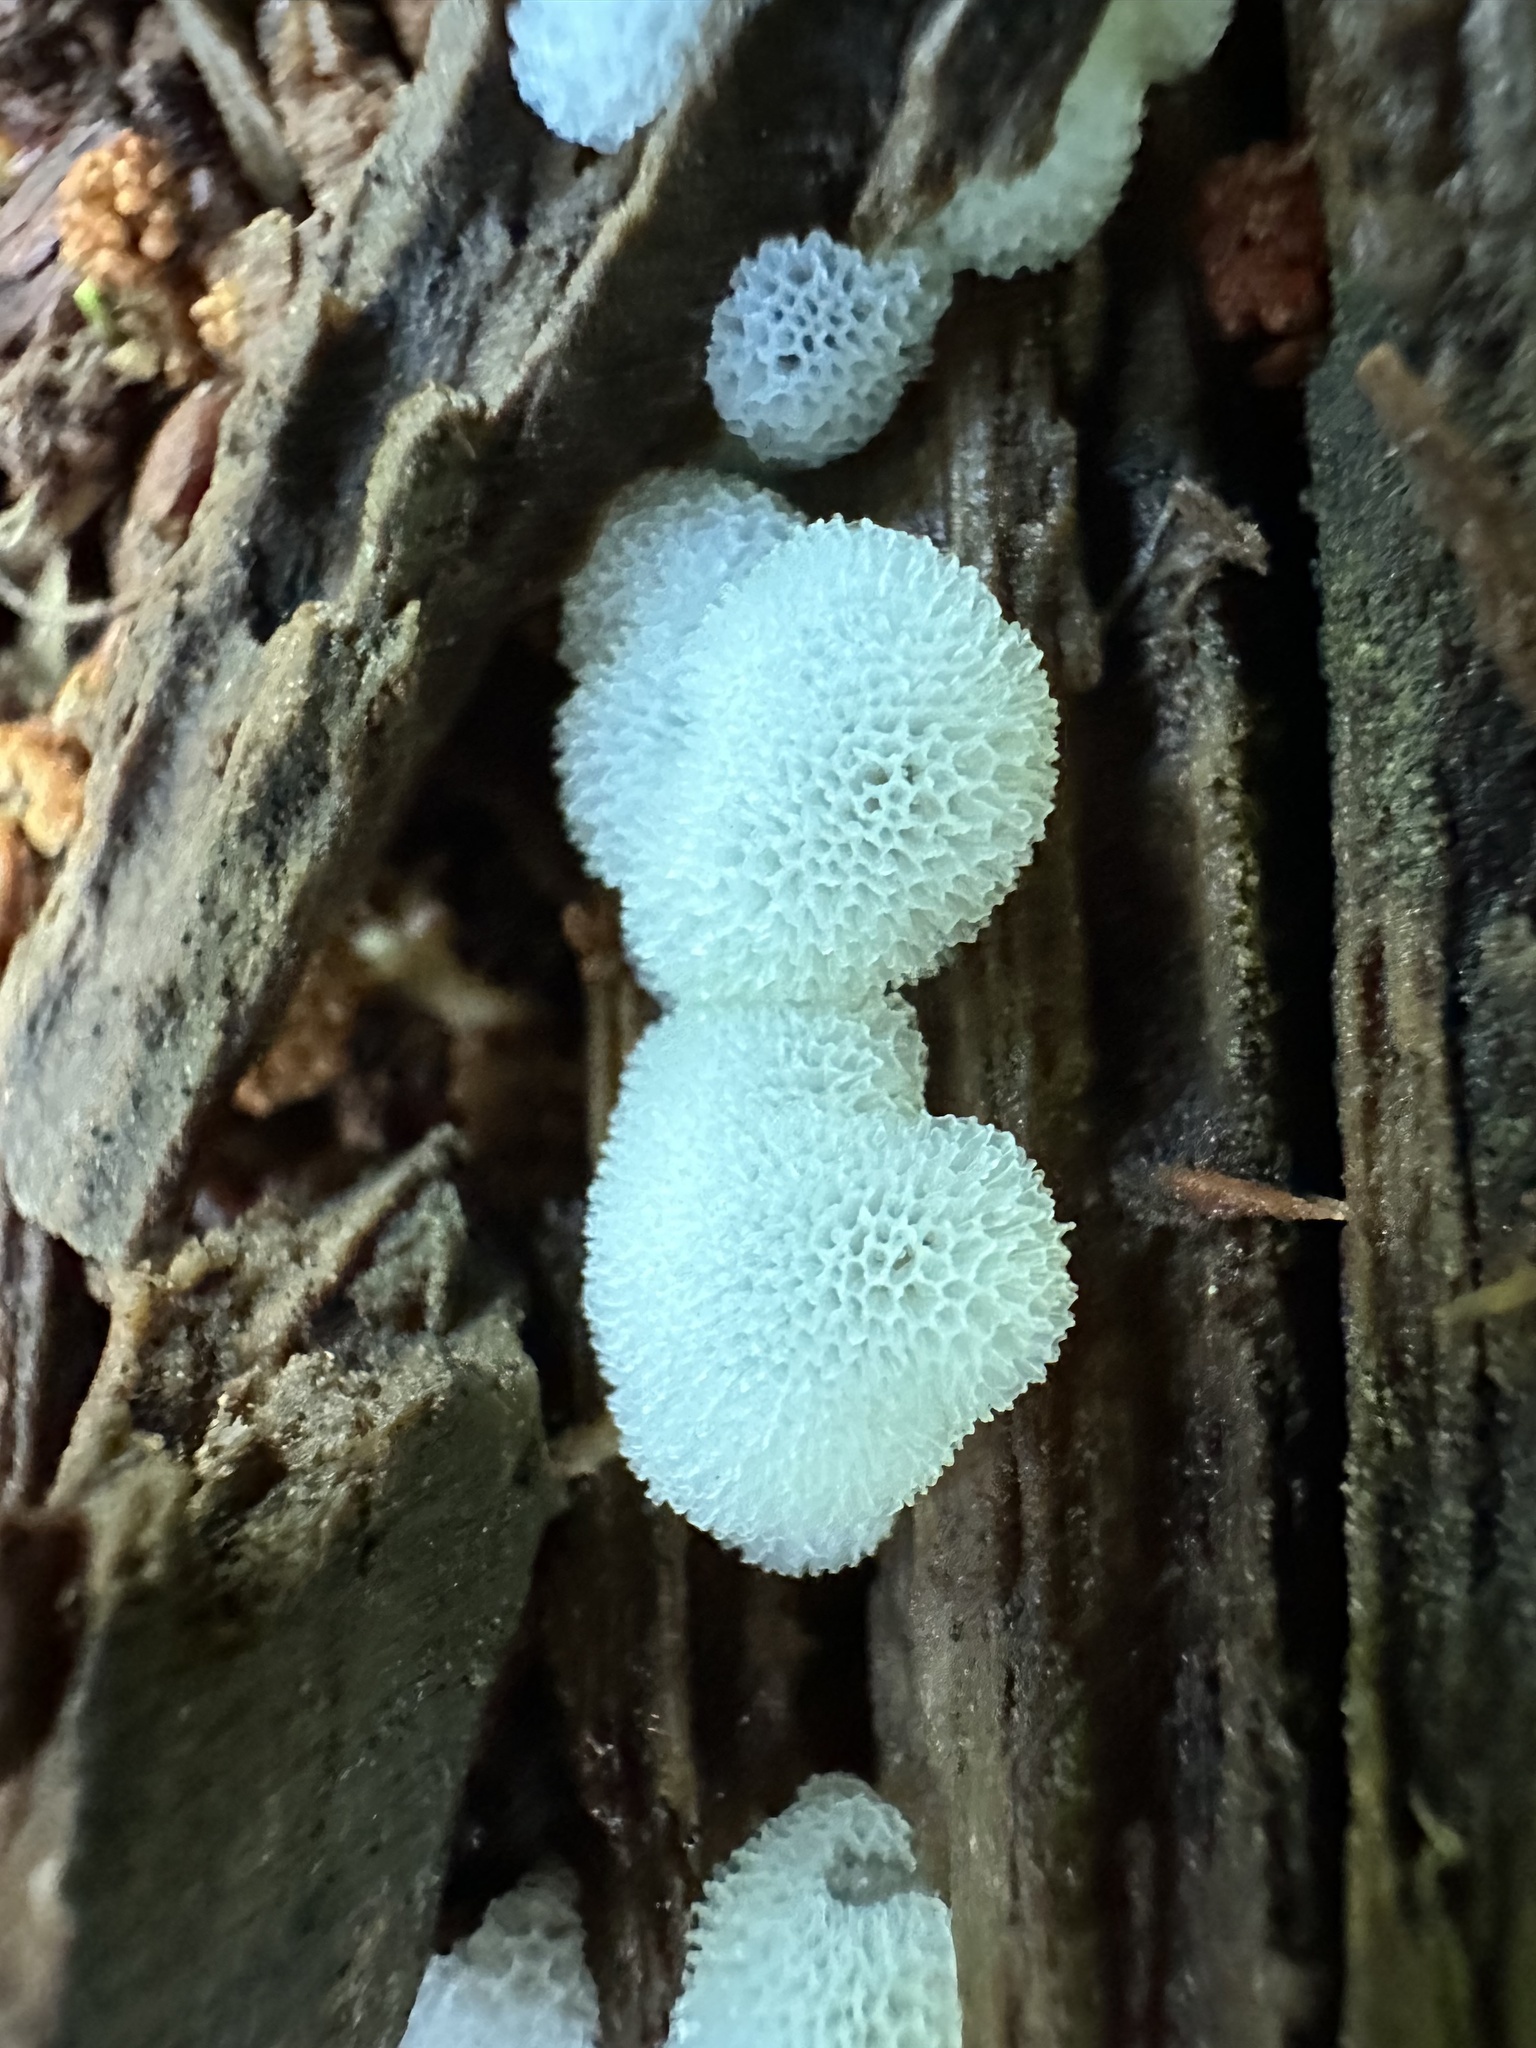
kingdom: Protozoa
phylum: Mycetozoa
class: Protosteliomycetes
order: Ceratiomyxales
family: Ceratiomyxaceae
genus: Ceratiomyxa
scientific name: Ceratiomyxa fruticulosa
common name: Honeycomb coral slime mold
